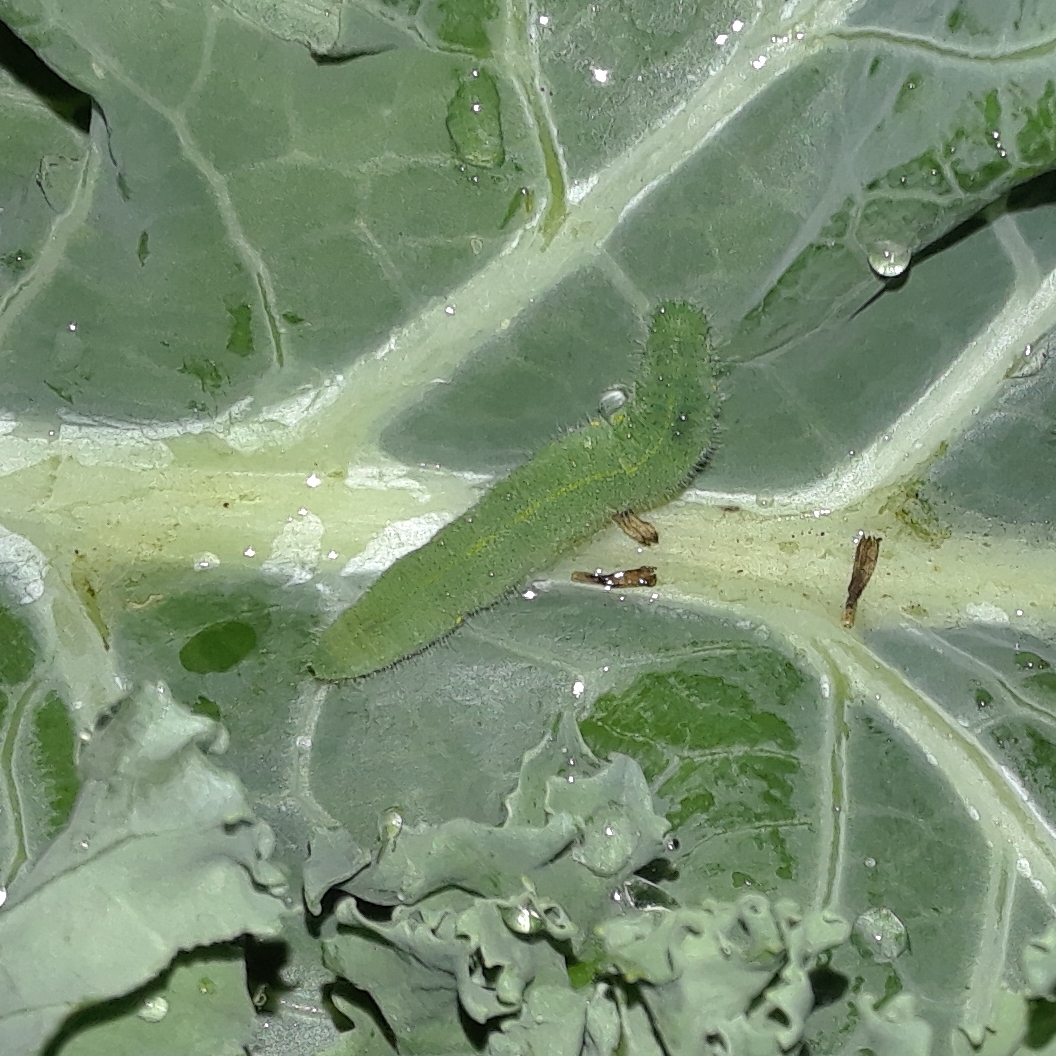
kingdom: Animalia
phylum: Arthropoda
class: Insecta
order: Lepidoptera
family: Pieridae
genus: Pieris
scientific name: Pieris rapae
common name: Small white
